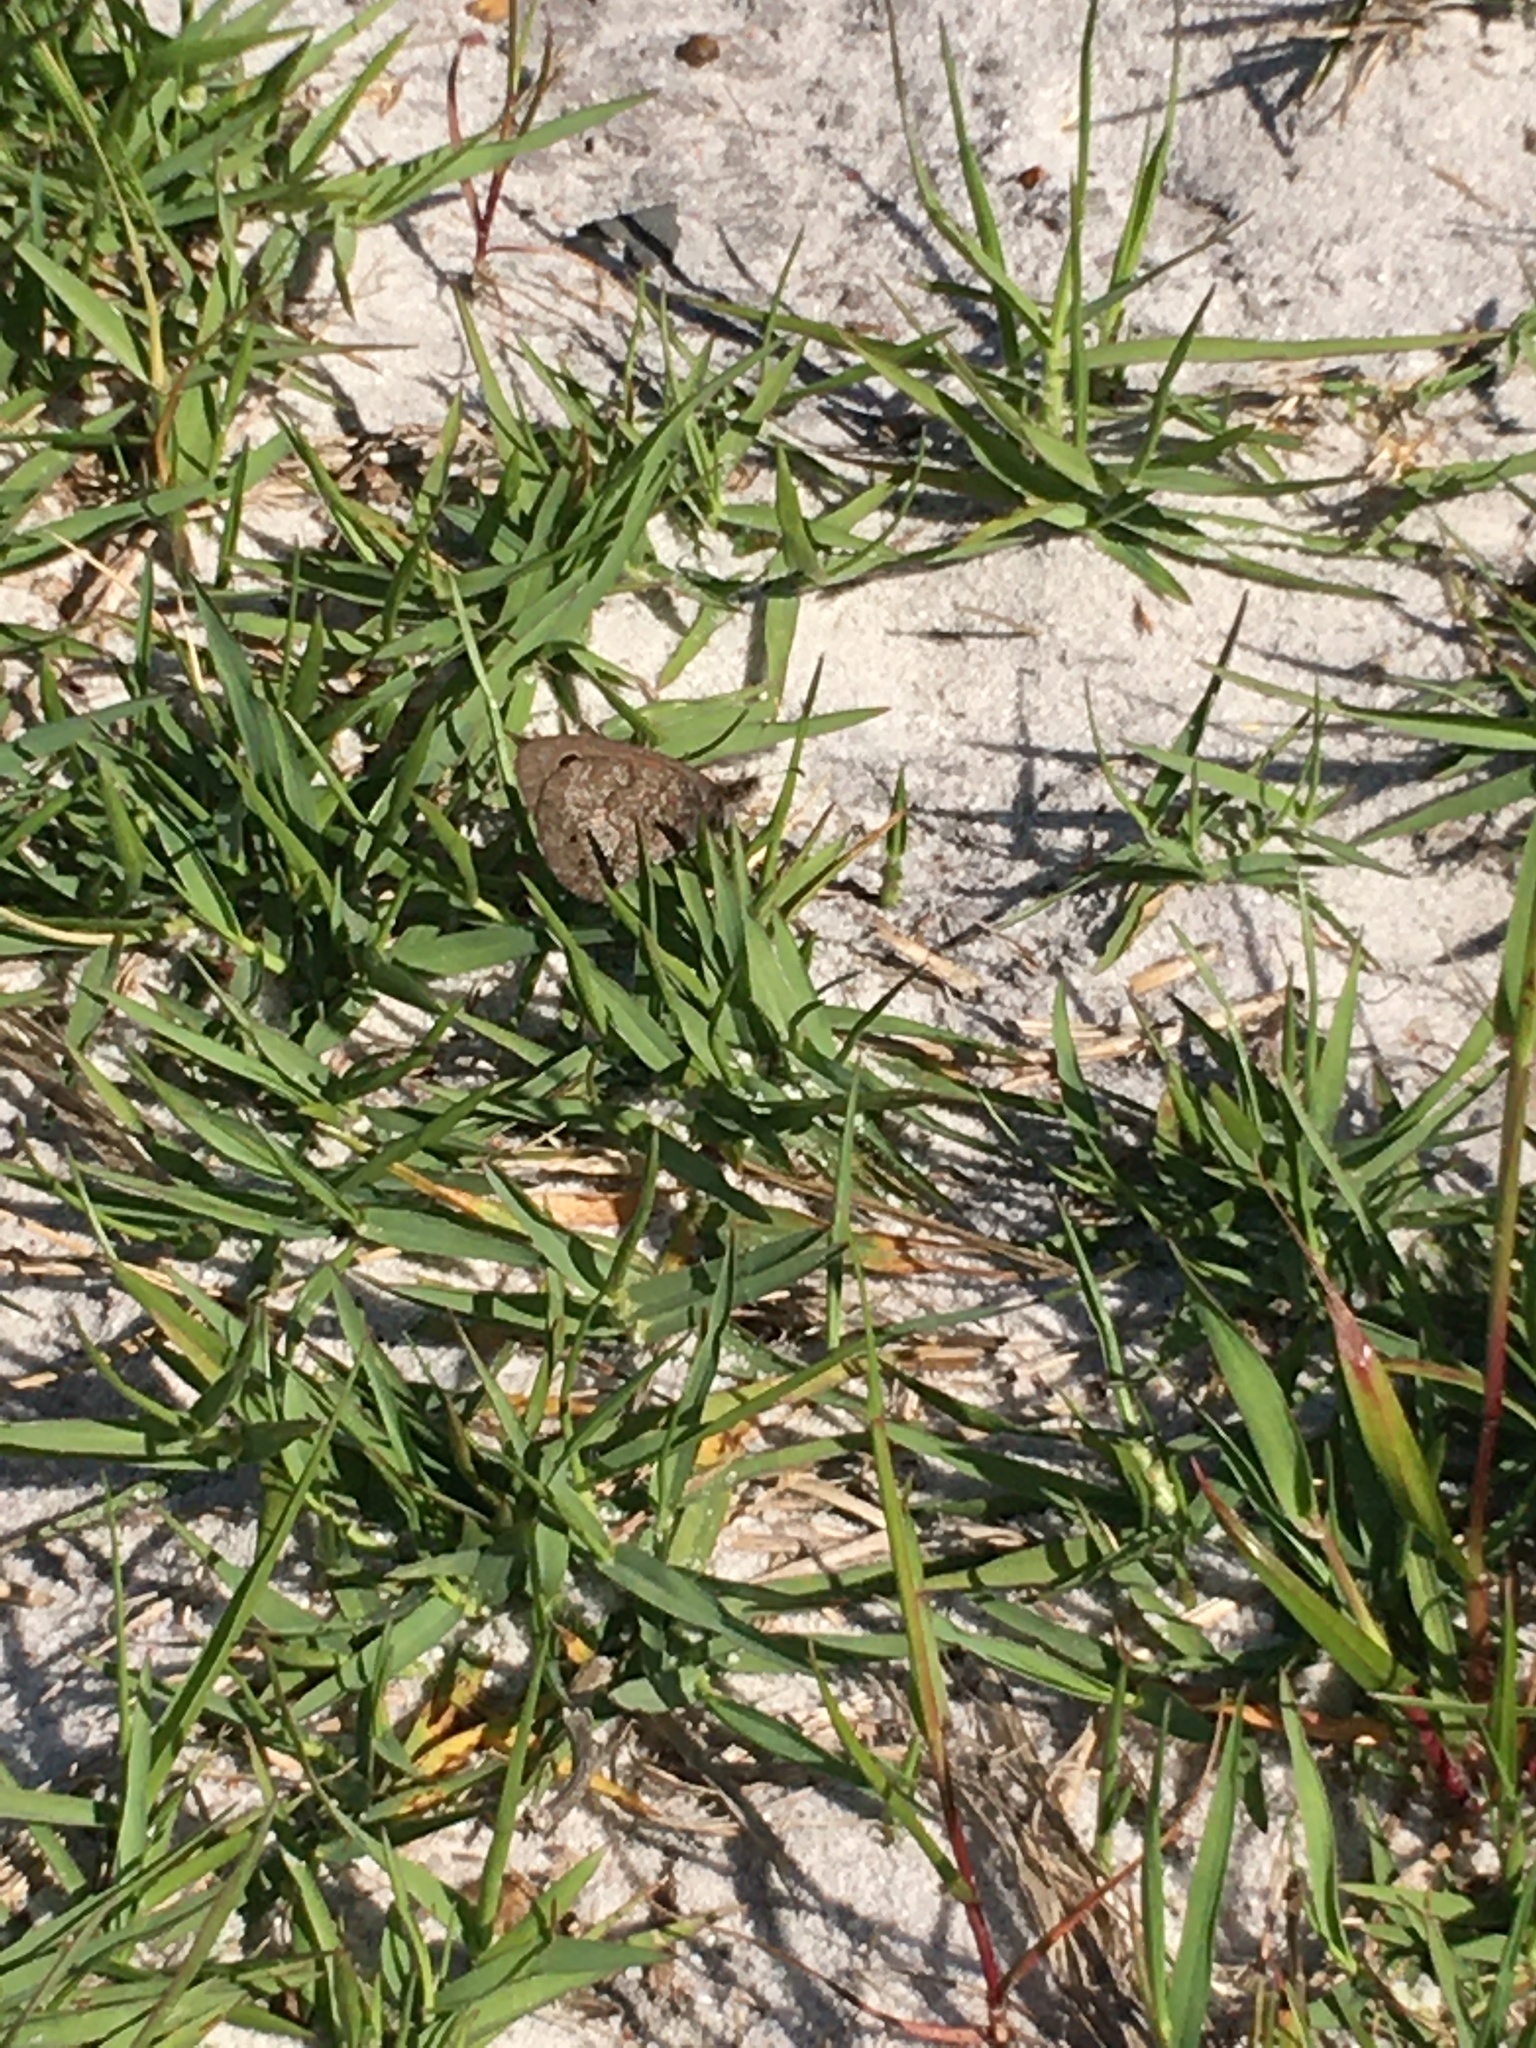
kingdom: Animalia
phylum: Arthropoda
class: Insecta
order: Lepidoptera
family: Nymphalidae
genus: Pseudonympha
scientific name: Pseudonympha magus
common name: Silver-bottom brown
